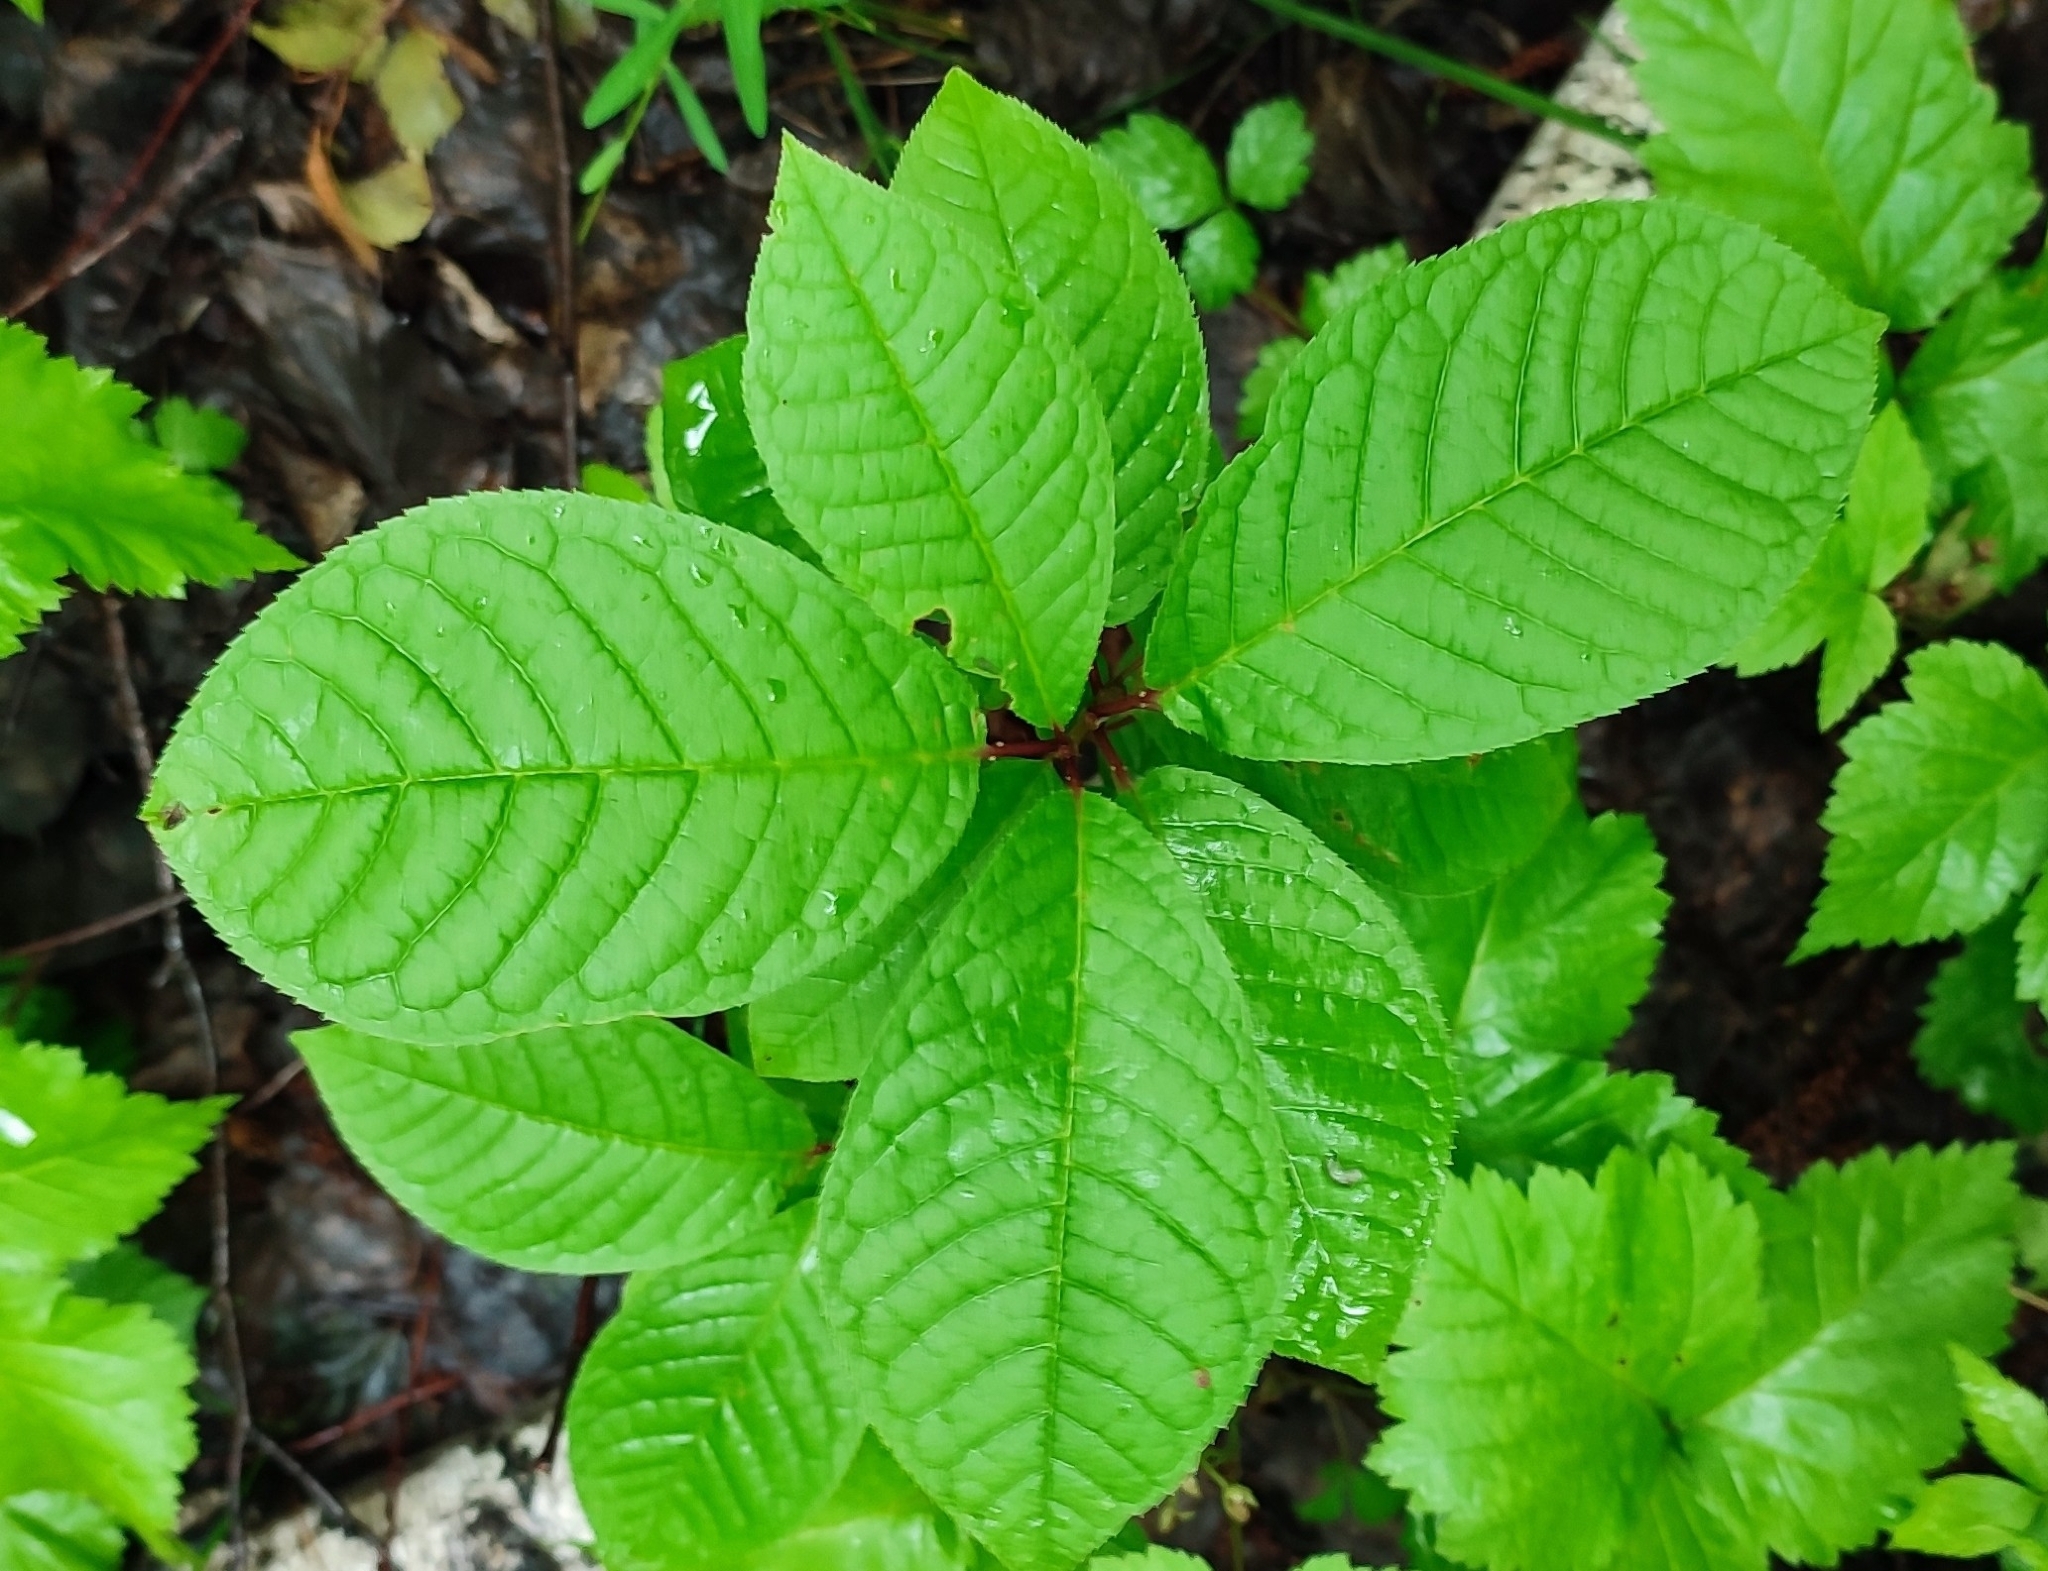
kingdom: Plantae
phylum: Tracheophyta
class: Magnoliopsida
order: Rosales
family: Rosaceae
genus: Prunus
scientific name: Prunus padus
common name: Bird cherry
